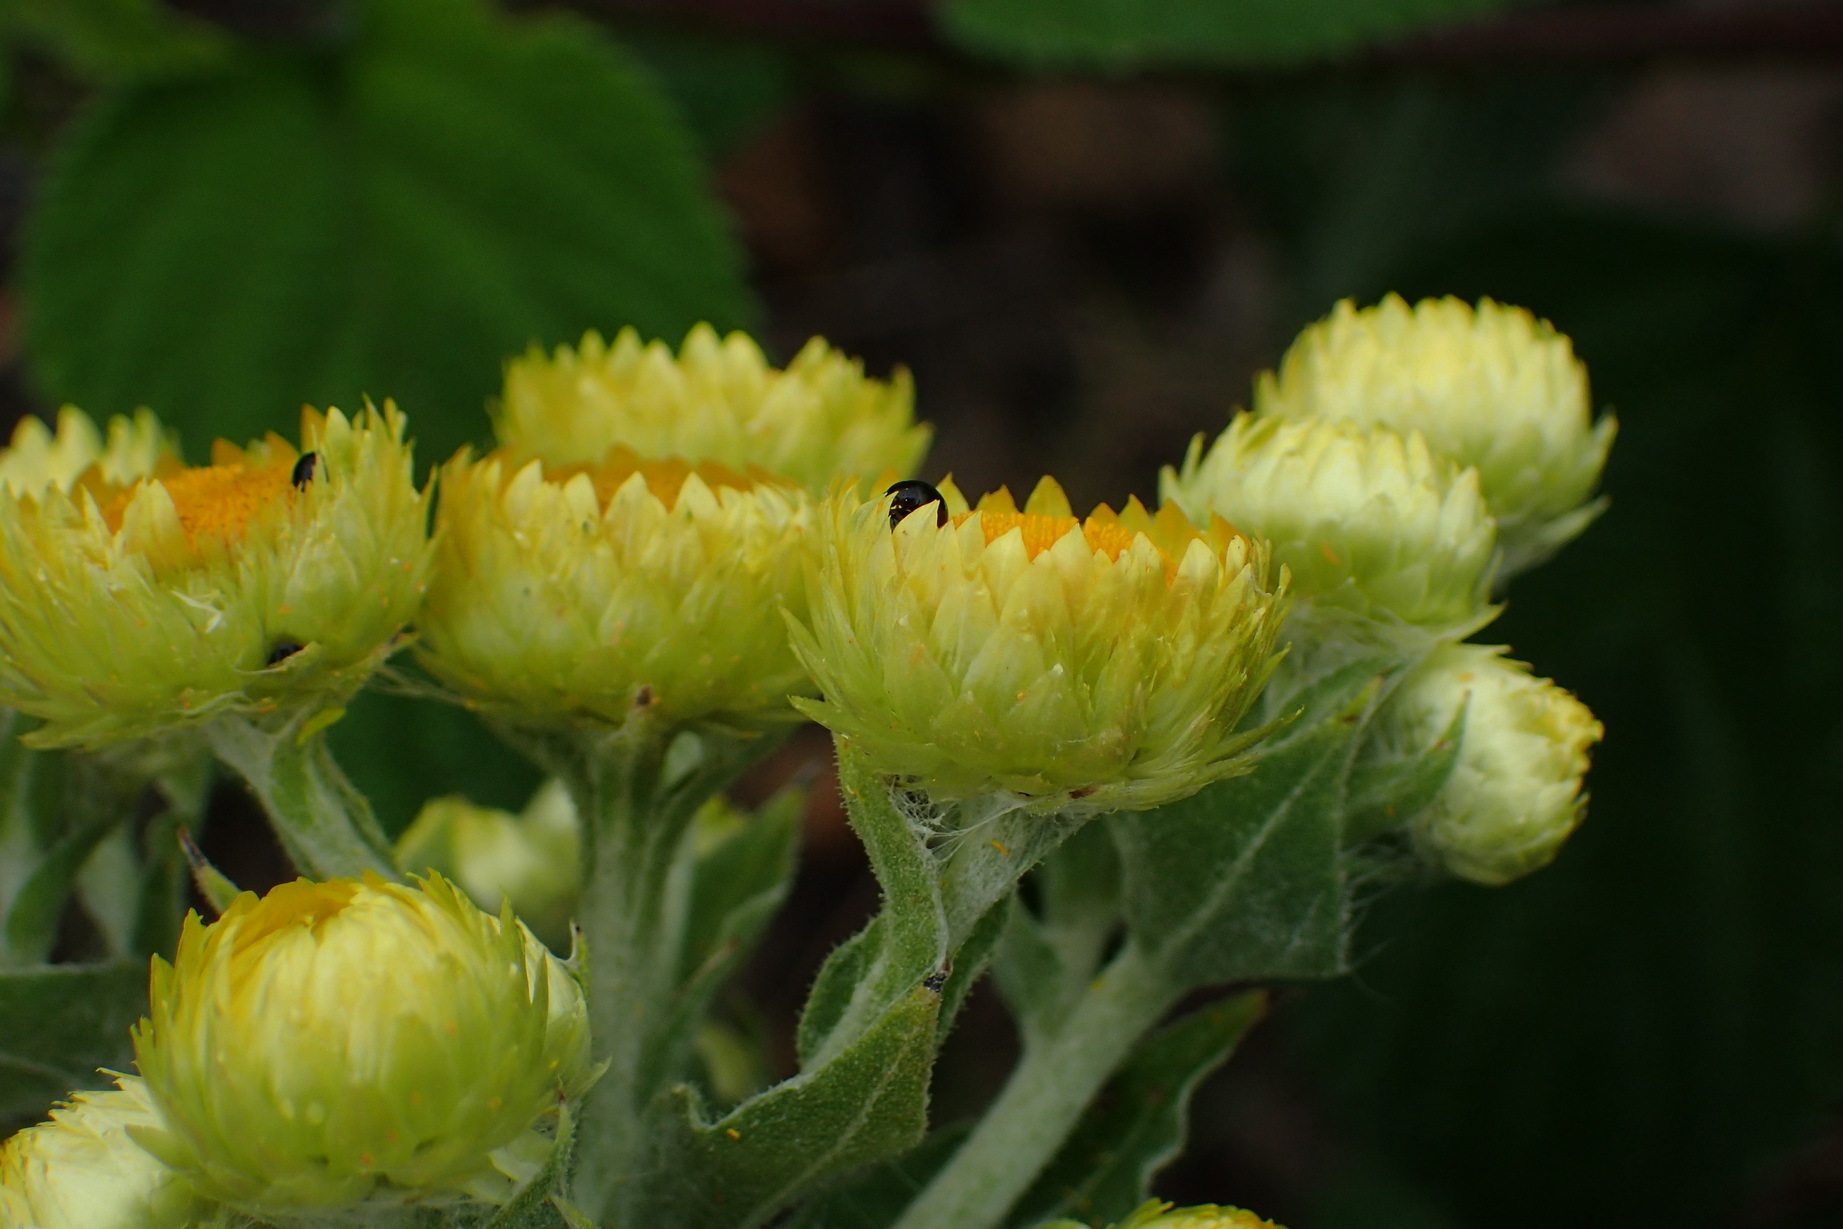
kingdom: Plantae
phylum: Tracheophyta
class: Magnoliopsida
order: Asterales
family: Asteraceae
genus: Helichrysum
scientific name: Helichrysum foetidum
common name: Stinking everlasting
